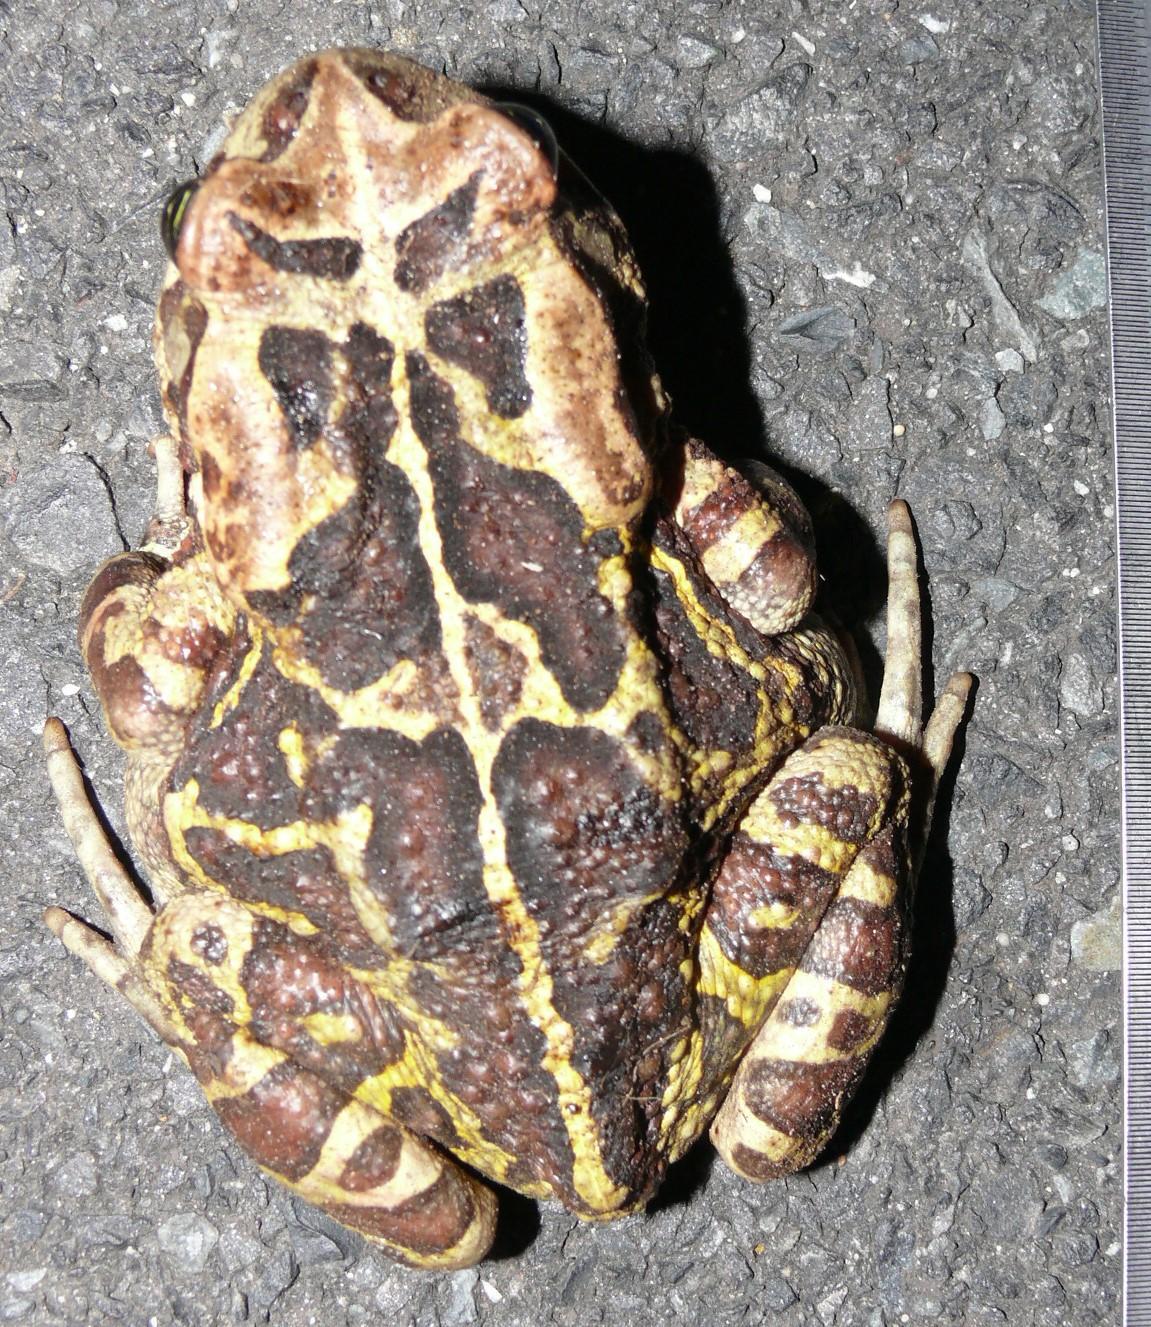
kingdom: Animalia
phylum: Chordata
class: Amphibia
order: Anura
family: Bufonidae
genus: Sclerophrys
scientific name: Sclerophrys pantherina
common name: Panther toad
